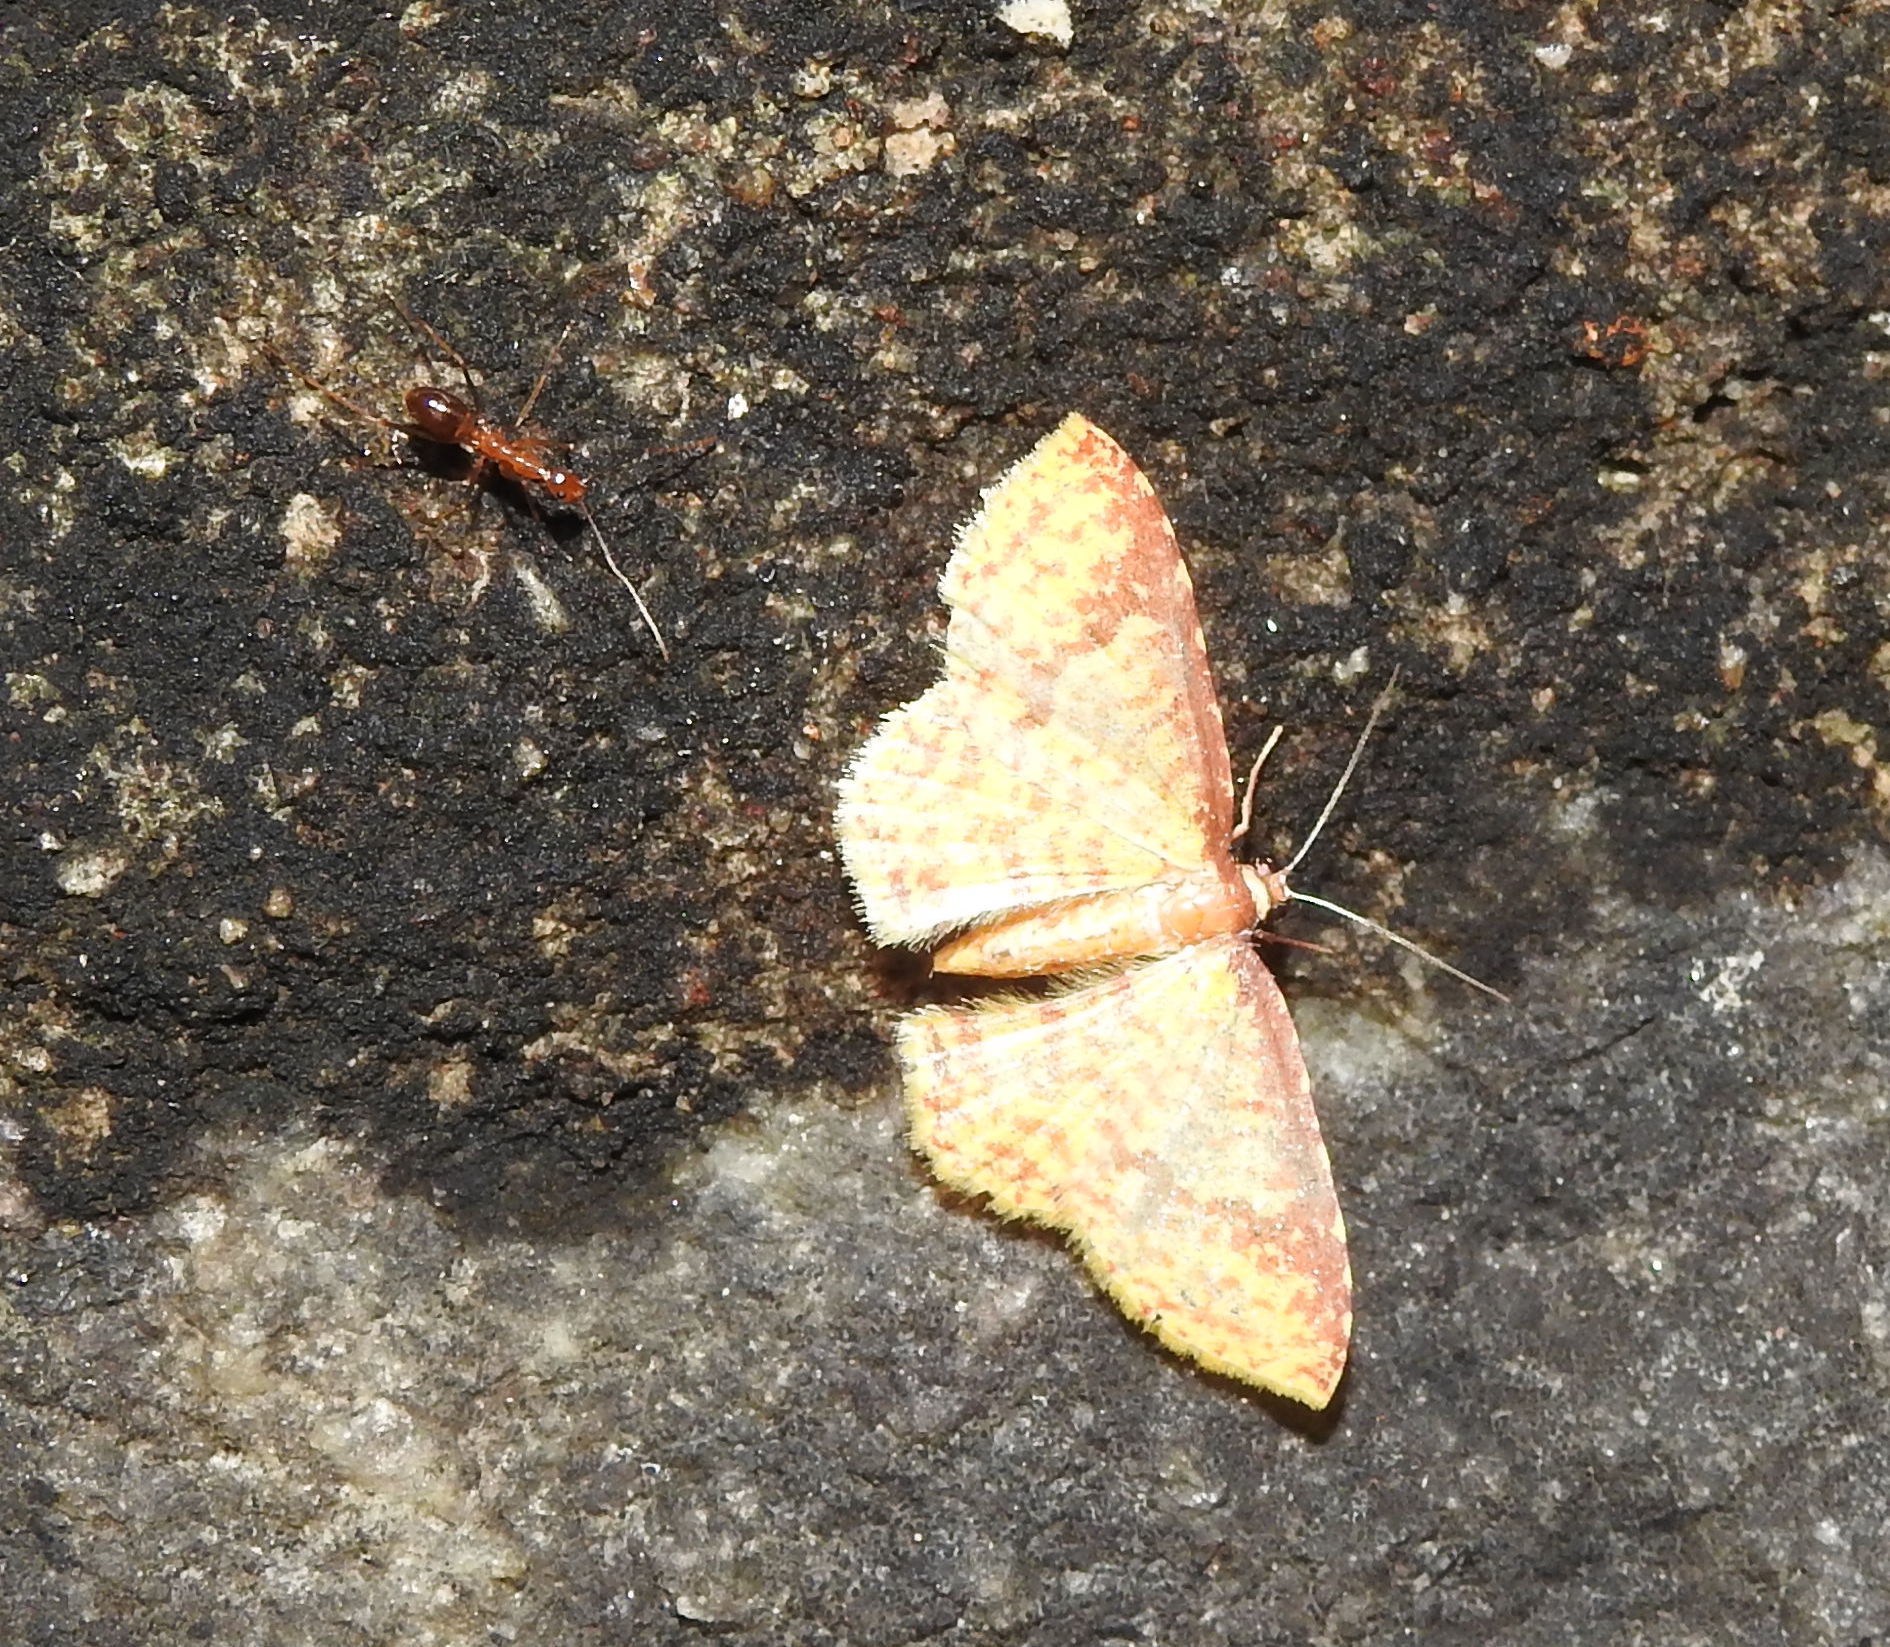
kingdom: Animalia
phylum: Arthropoda
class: Insecta
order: Hymenoptera
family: Formicidae
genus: Anoplolepis
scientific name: Anoplolepis gracilipes
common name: Ant
